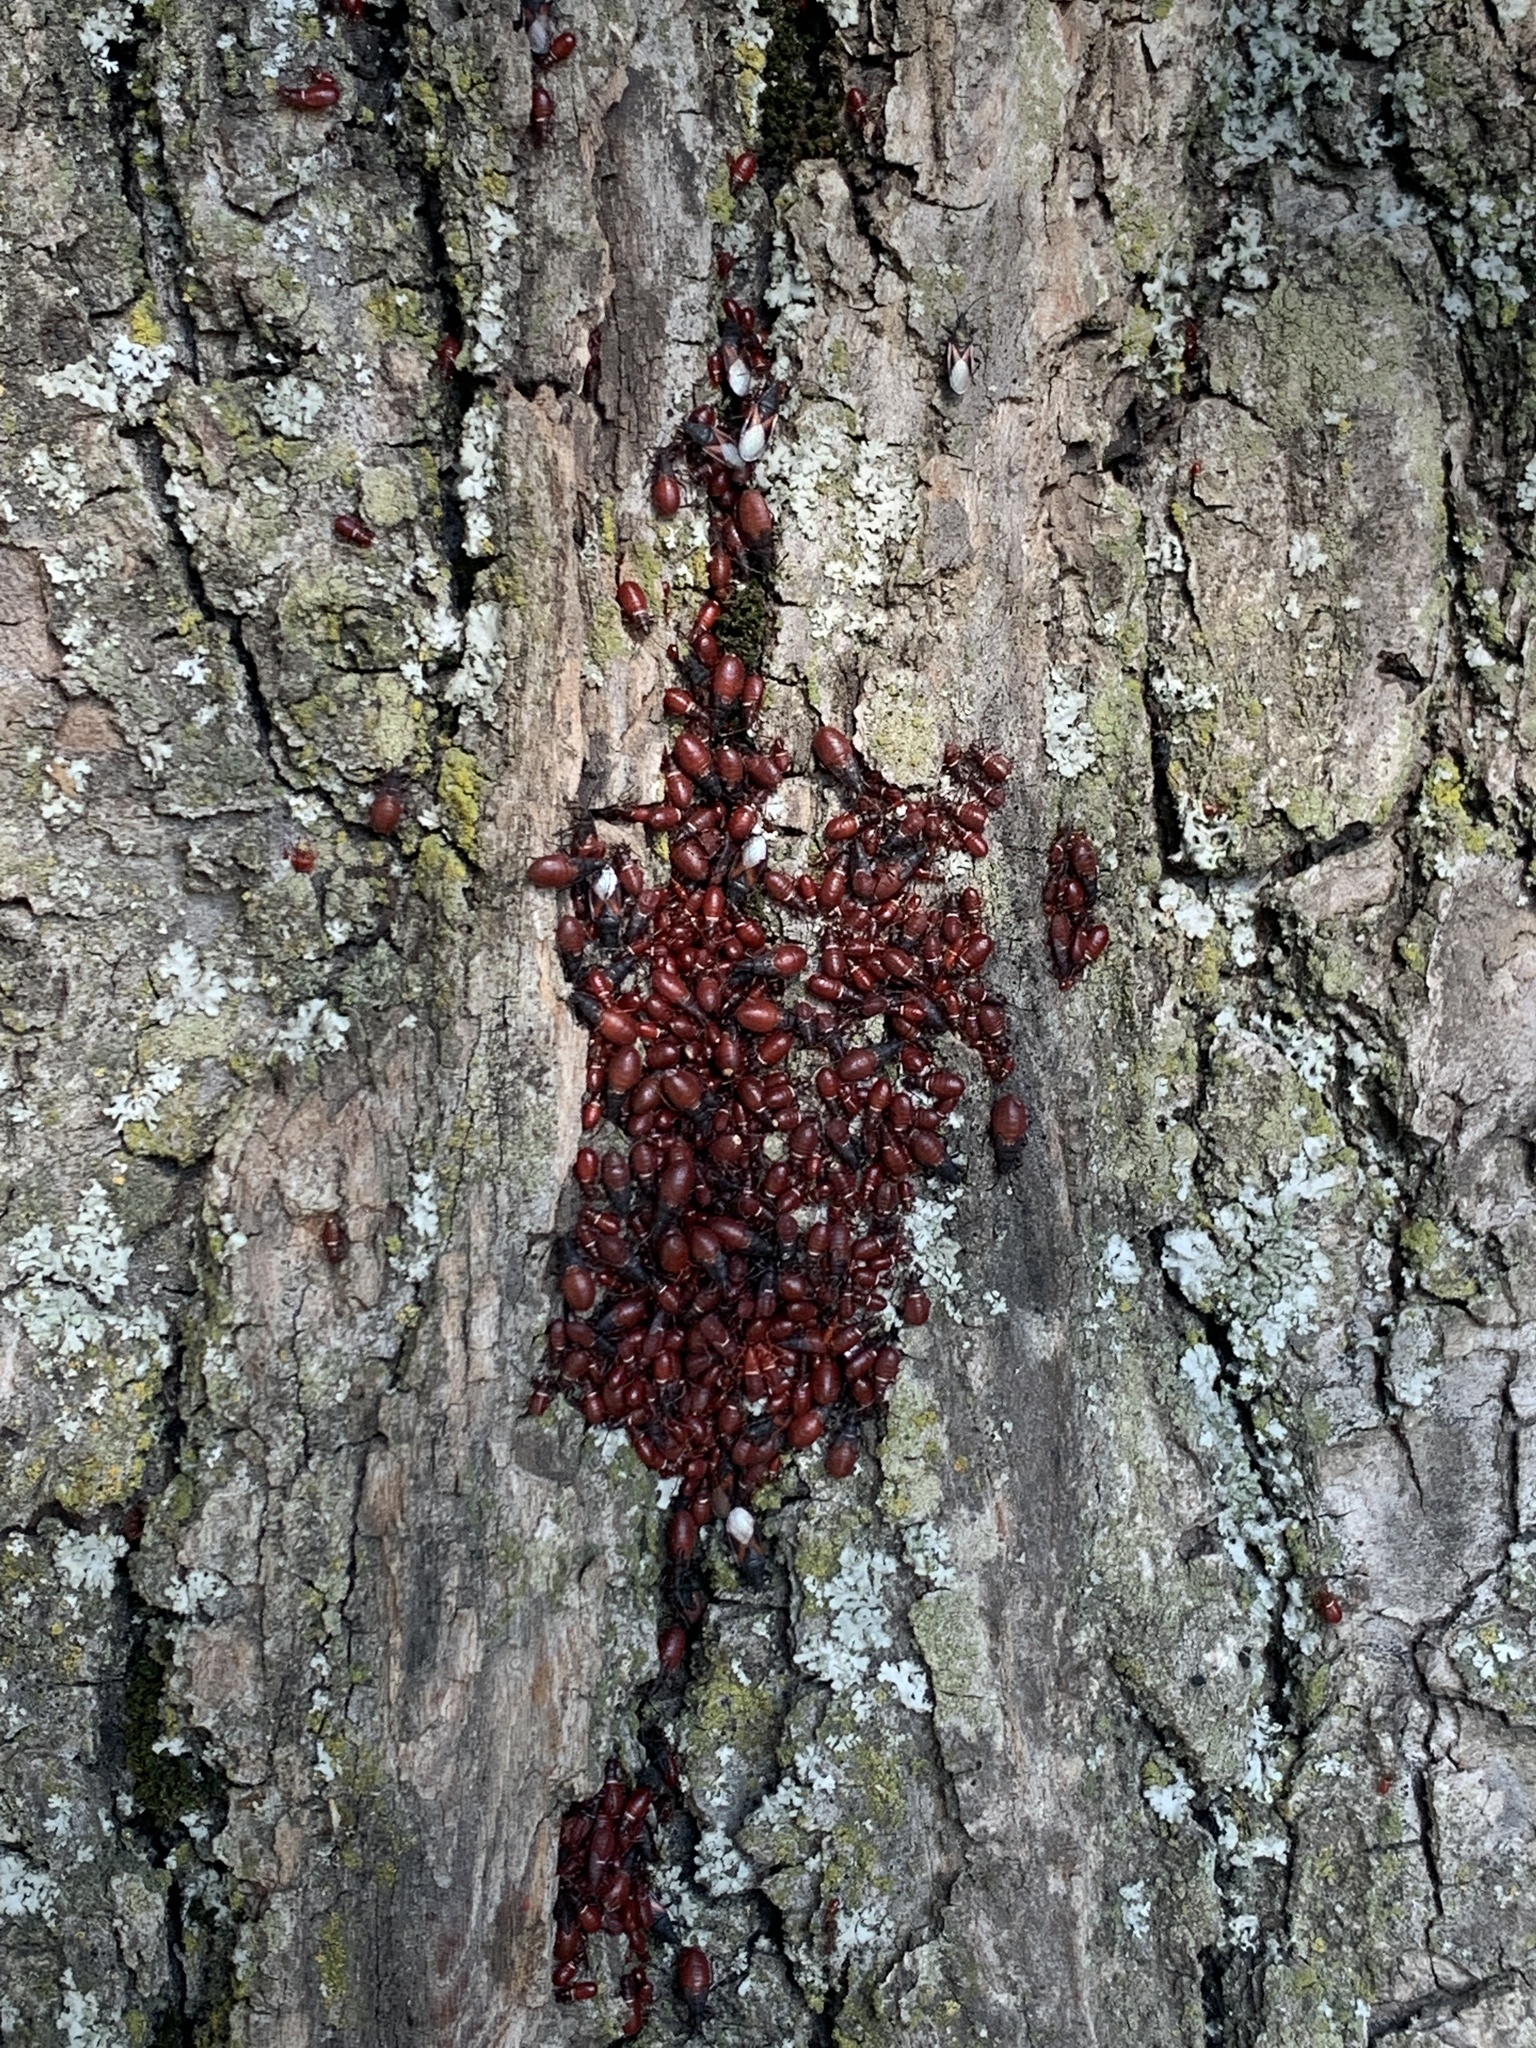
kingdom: Animalia
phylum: Arthropoda
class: Insecta
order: Hemiptera
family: Oxycarenidae
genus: Oxycarenus
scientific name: Oxycarenus lavaterae
